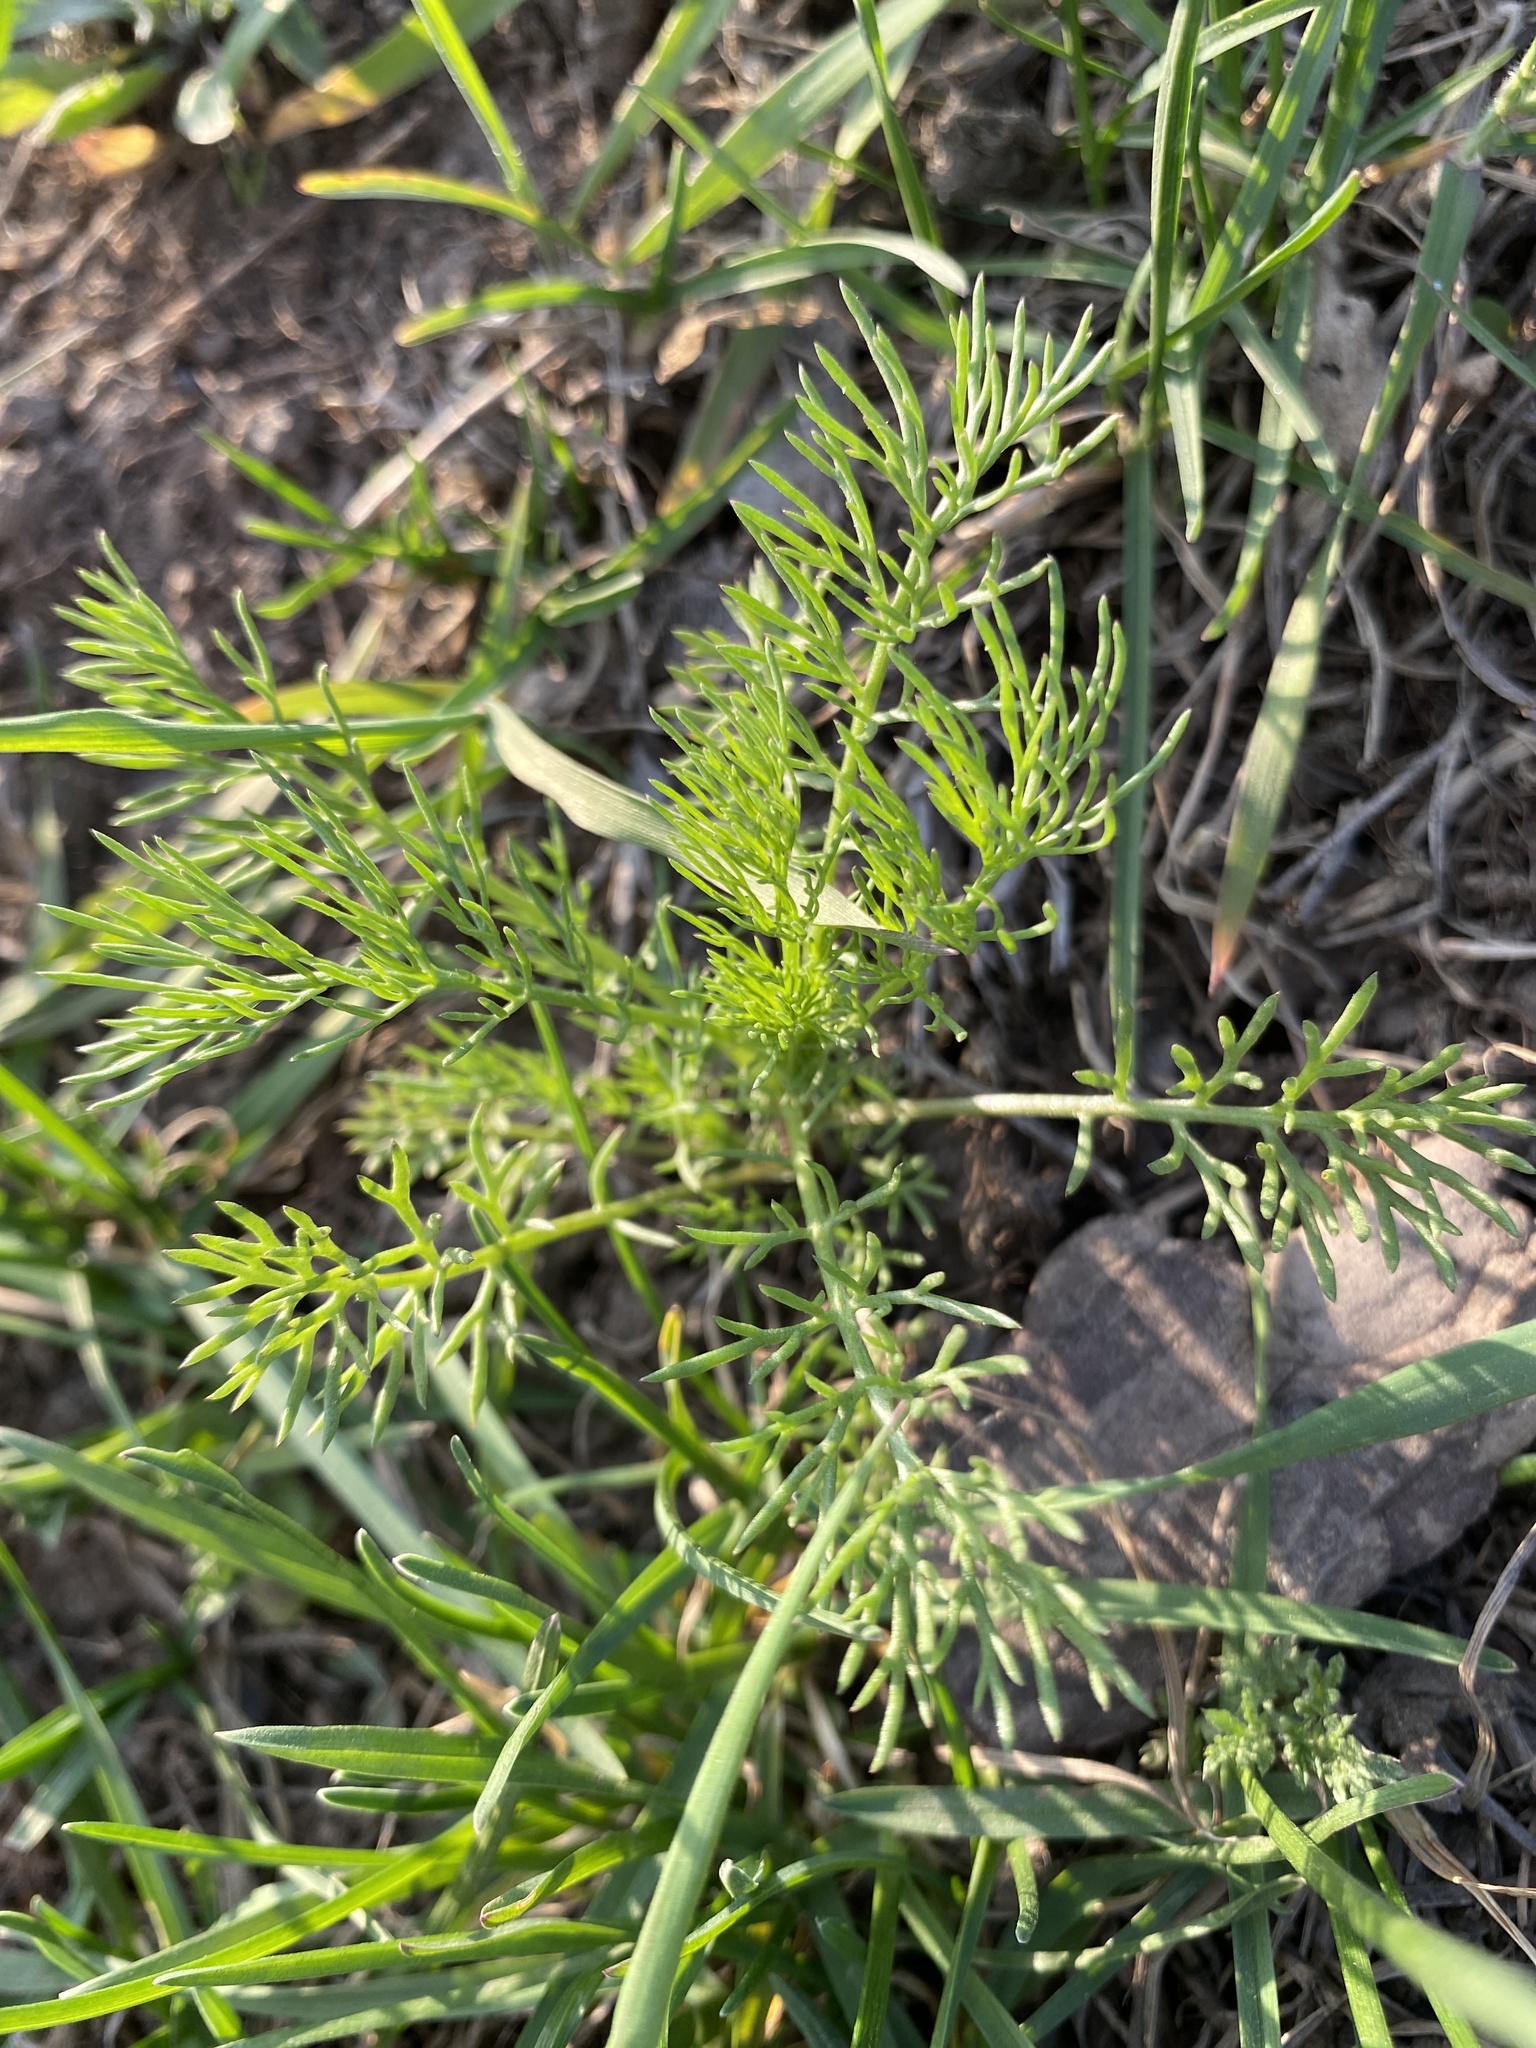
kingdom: Plantae
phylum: Tracheophyta
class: Magnoliopsida
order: Asterales
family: Asteraceae
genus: Tripleurospermum
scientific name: Tripleurospermum inodorum
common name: Scentless mayweed
